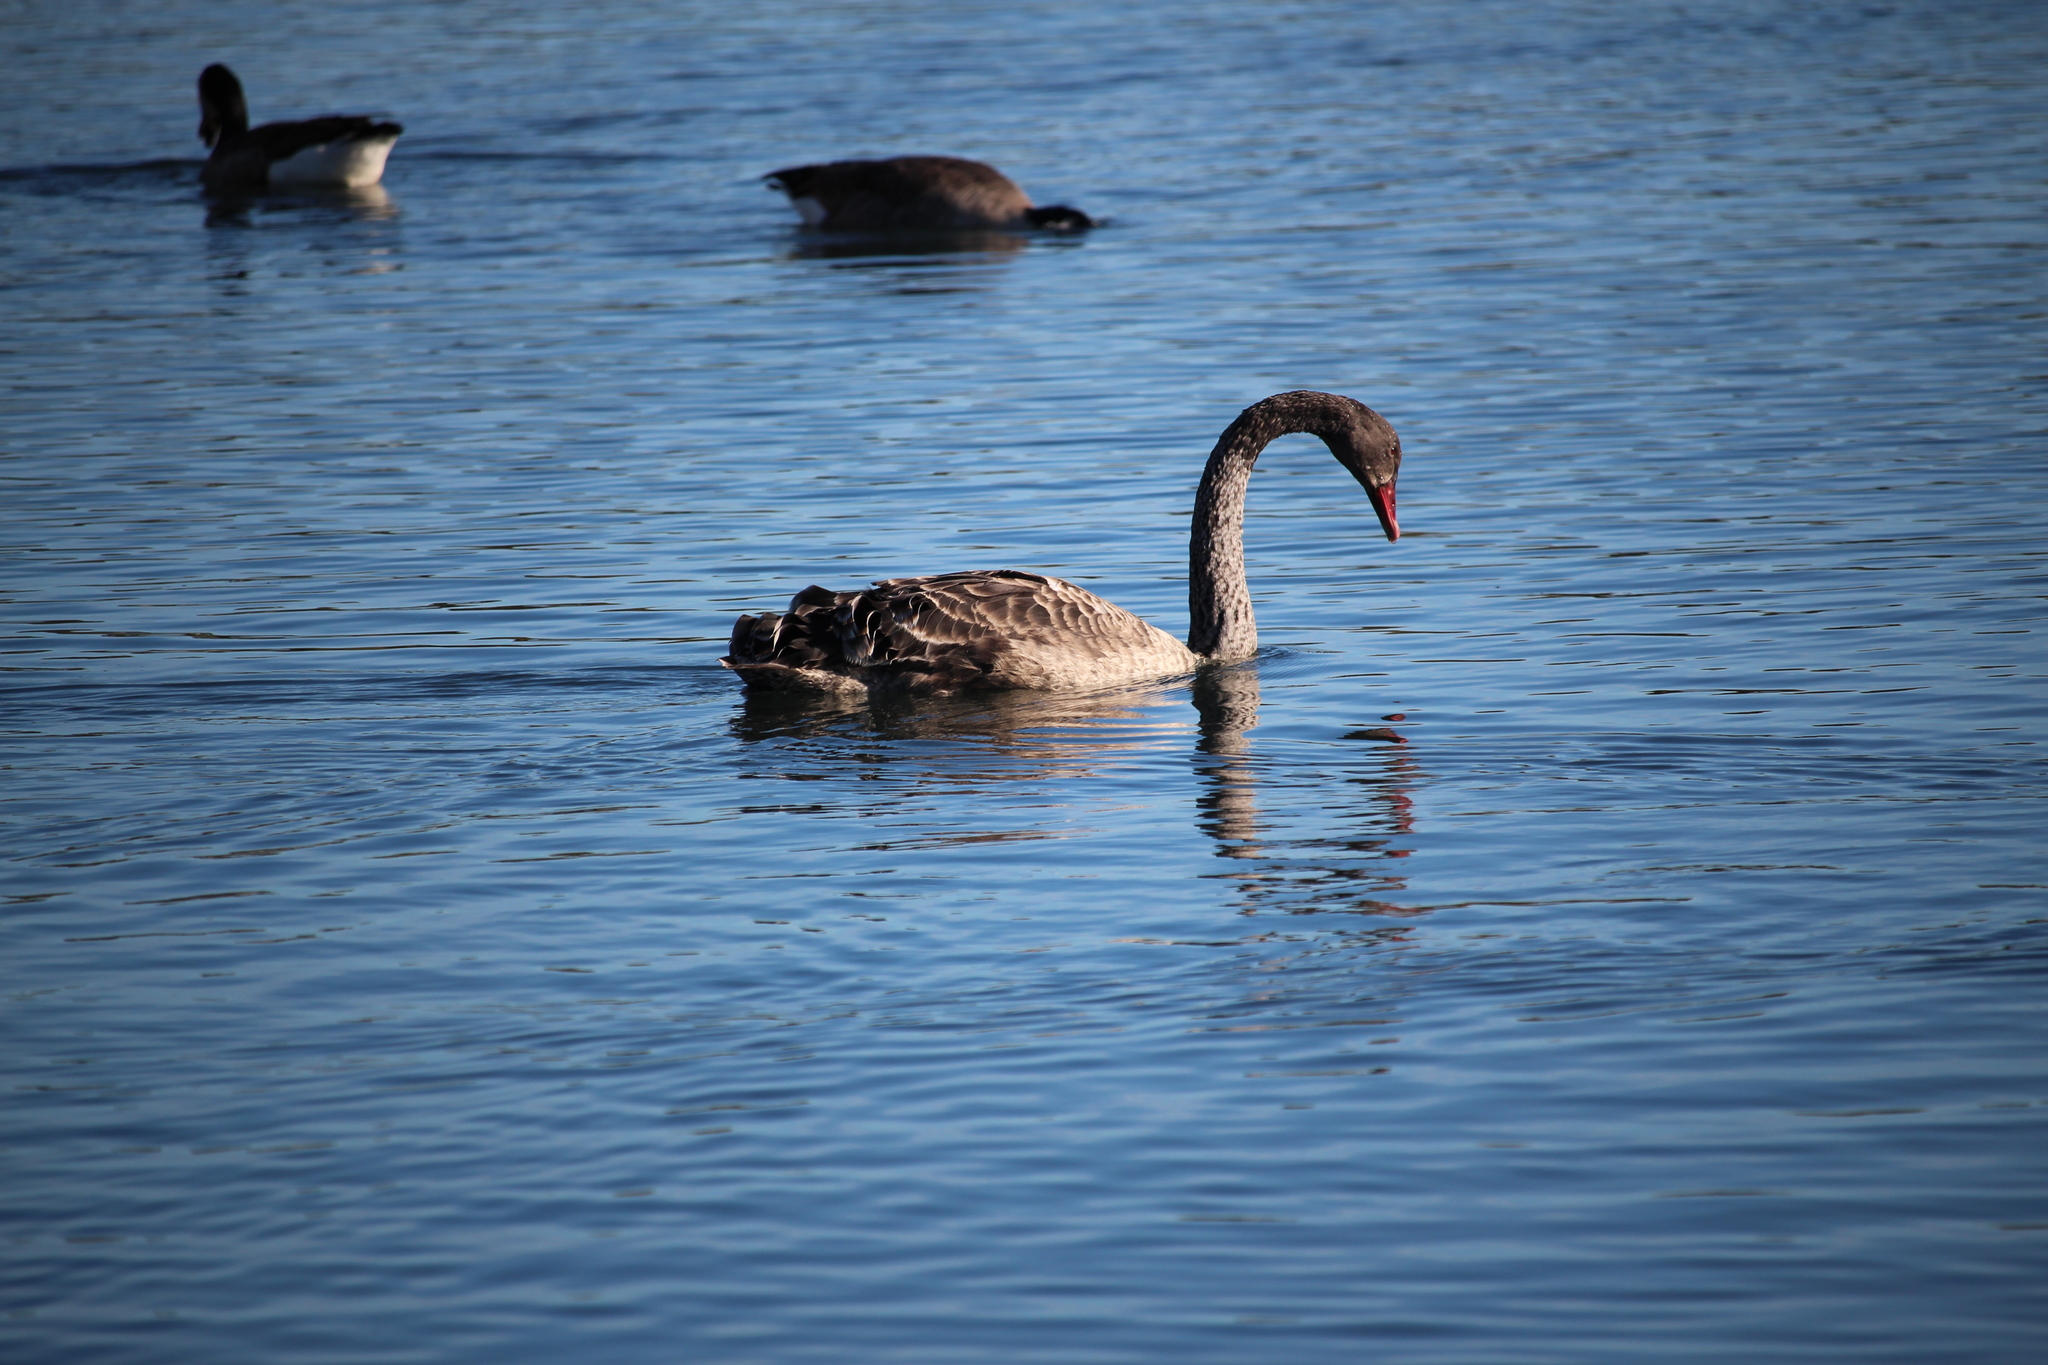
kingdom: Animalia
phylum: Chordata
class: Aves
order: Anseriformes
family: Anatidae
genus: Cygnus
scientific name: Cygnus atratus
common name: Black swan
